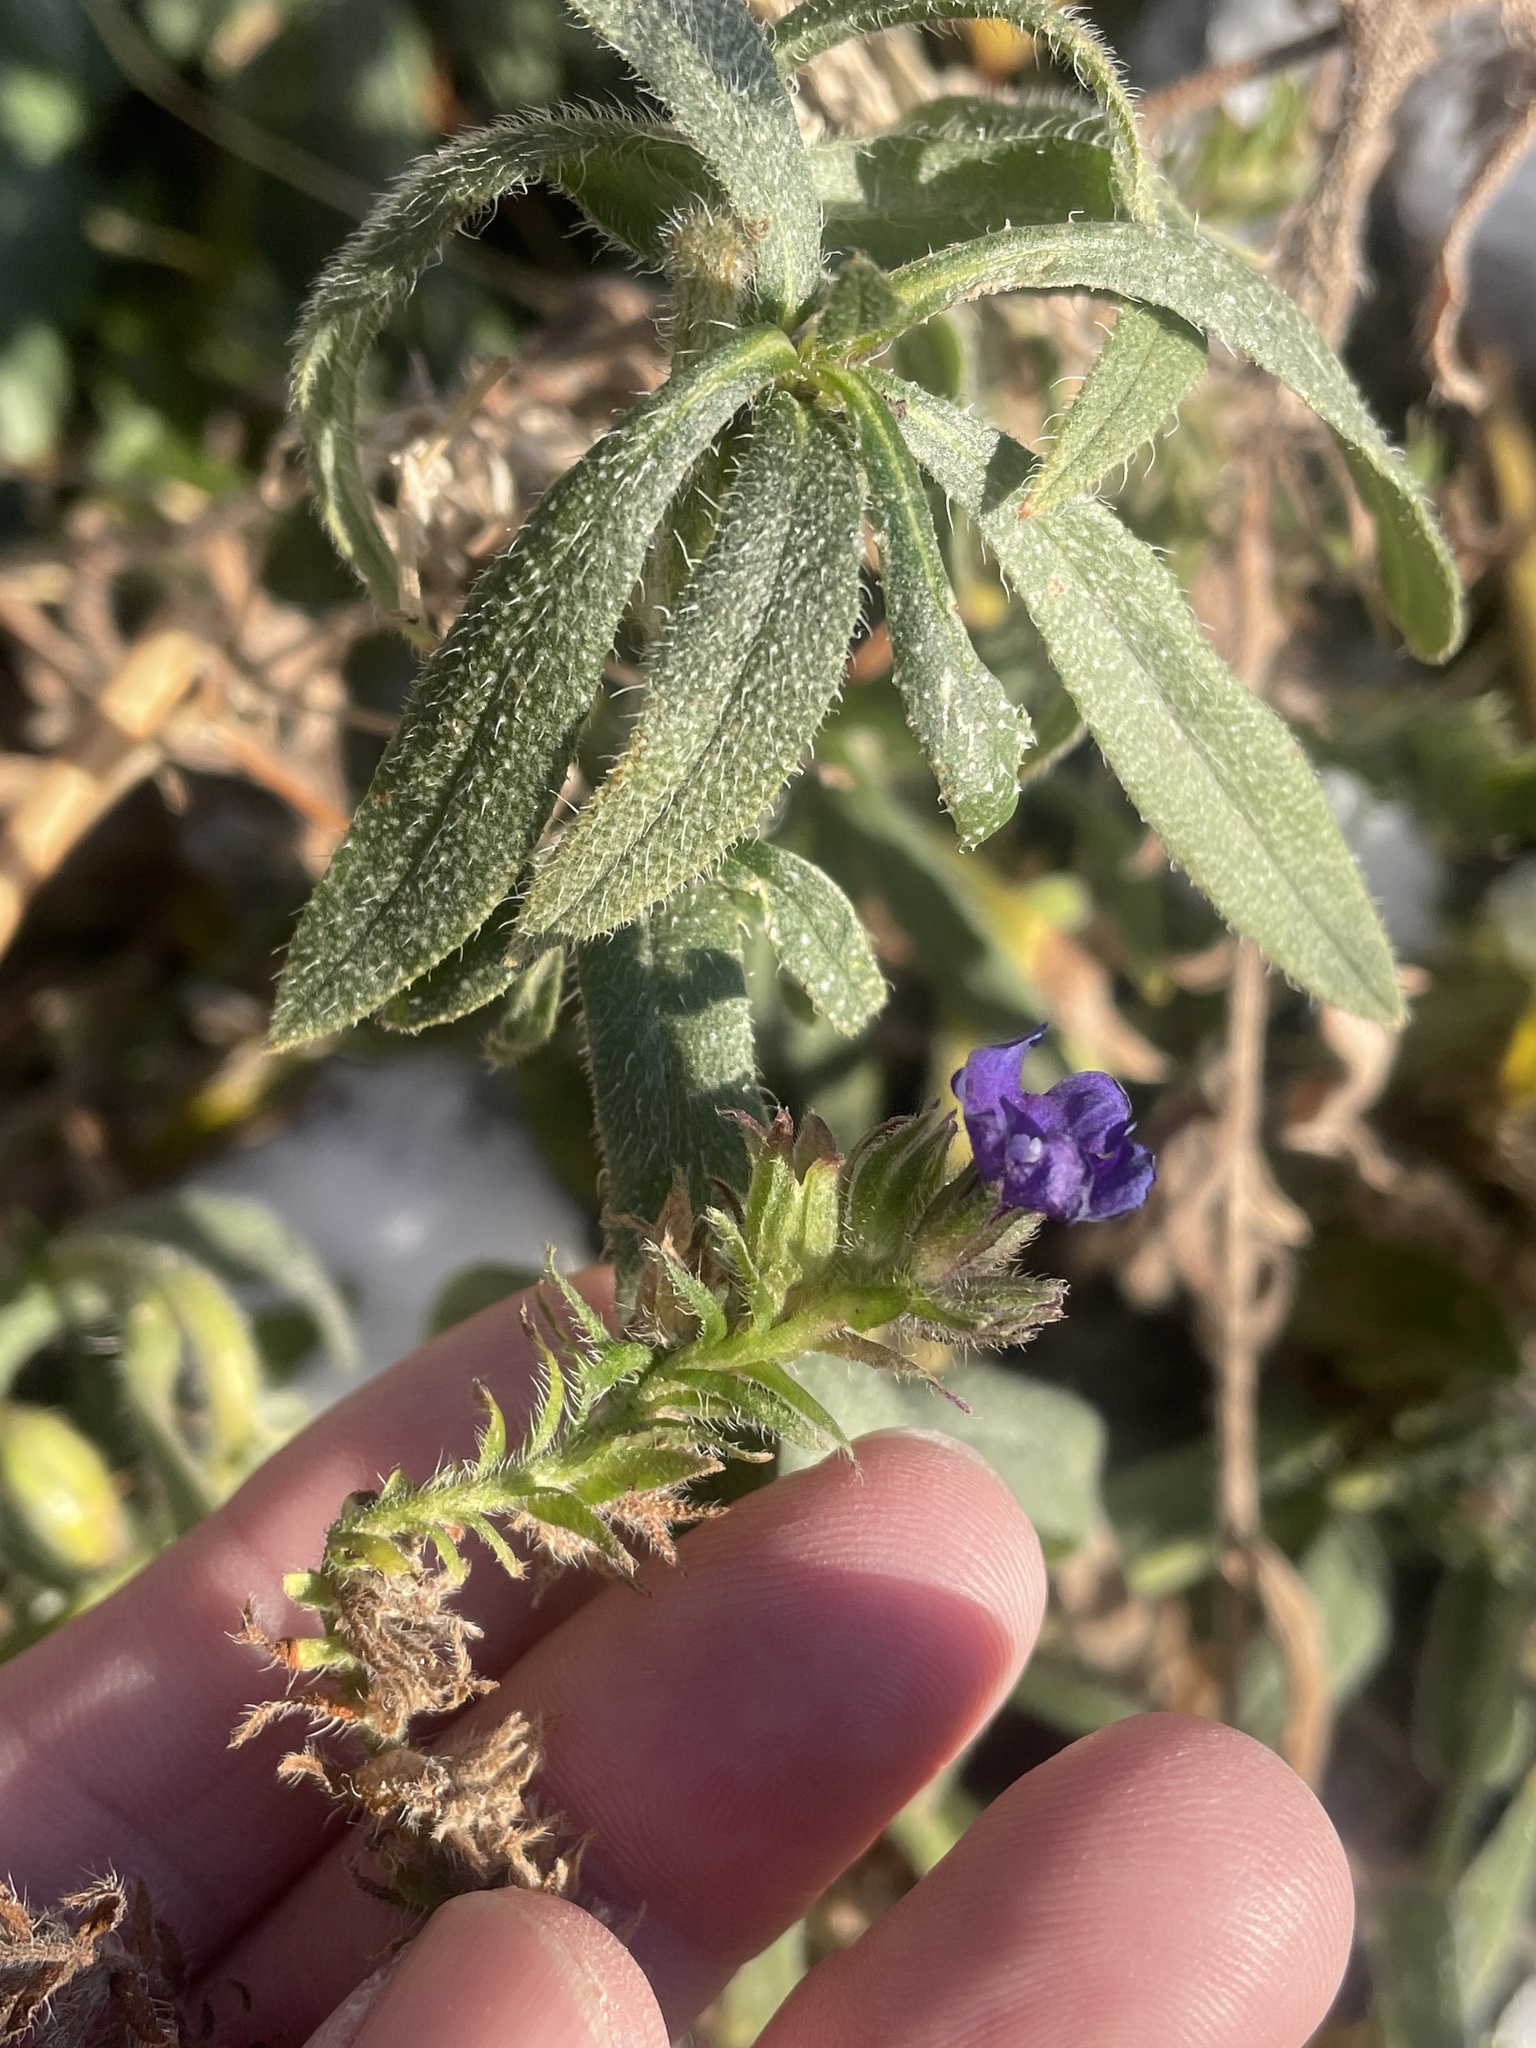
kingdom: Plantae
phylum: Tracheophyta
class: Magnoliopsida
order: Boraginales
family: Boraginaceae
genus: Anchusa
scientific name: Anchusa officinalis
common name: Alkanet
